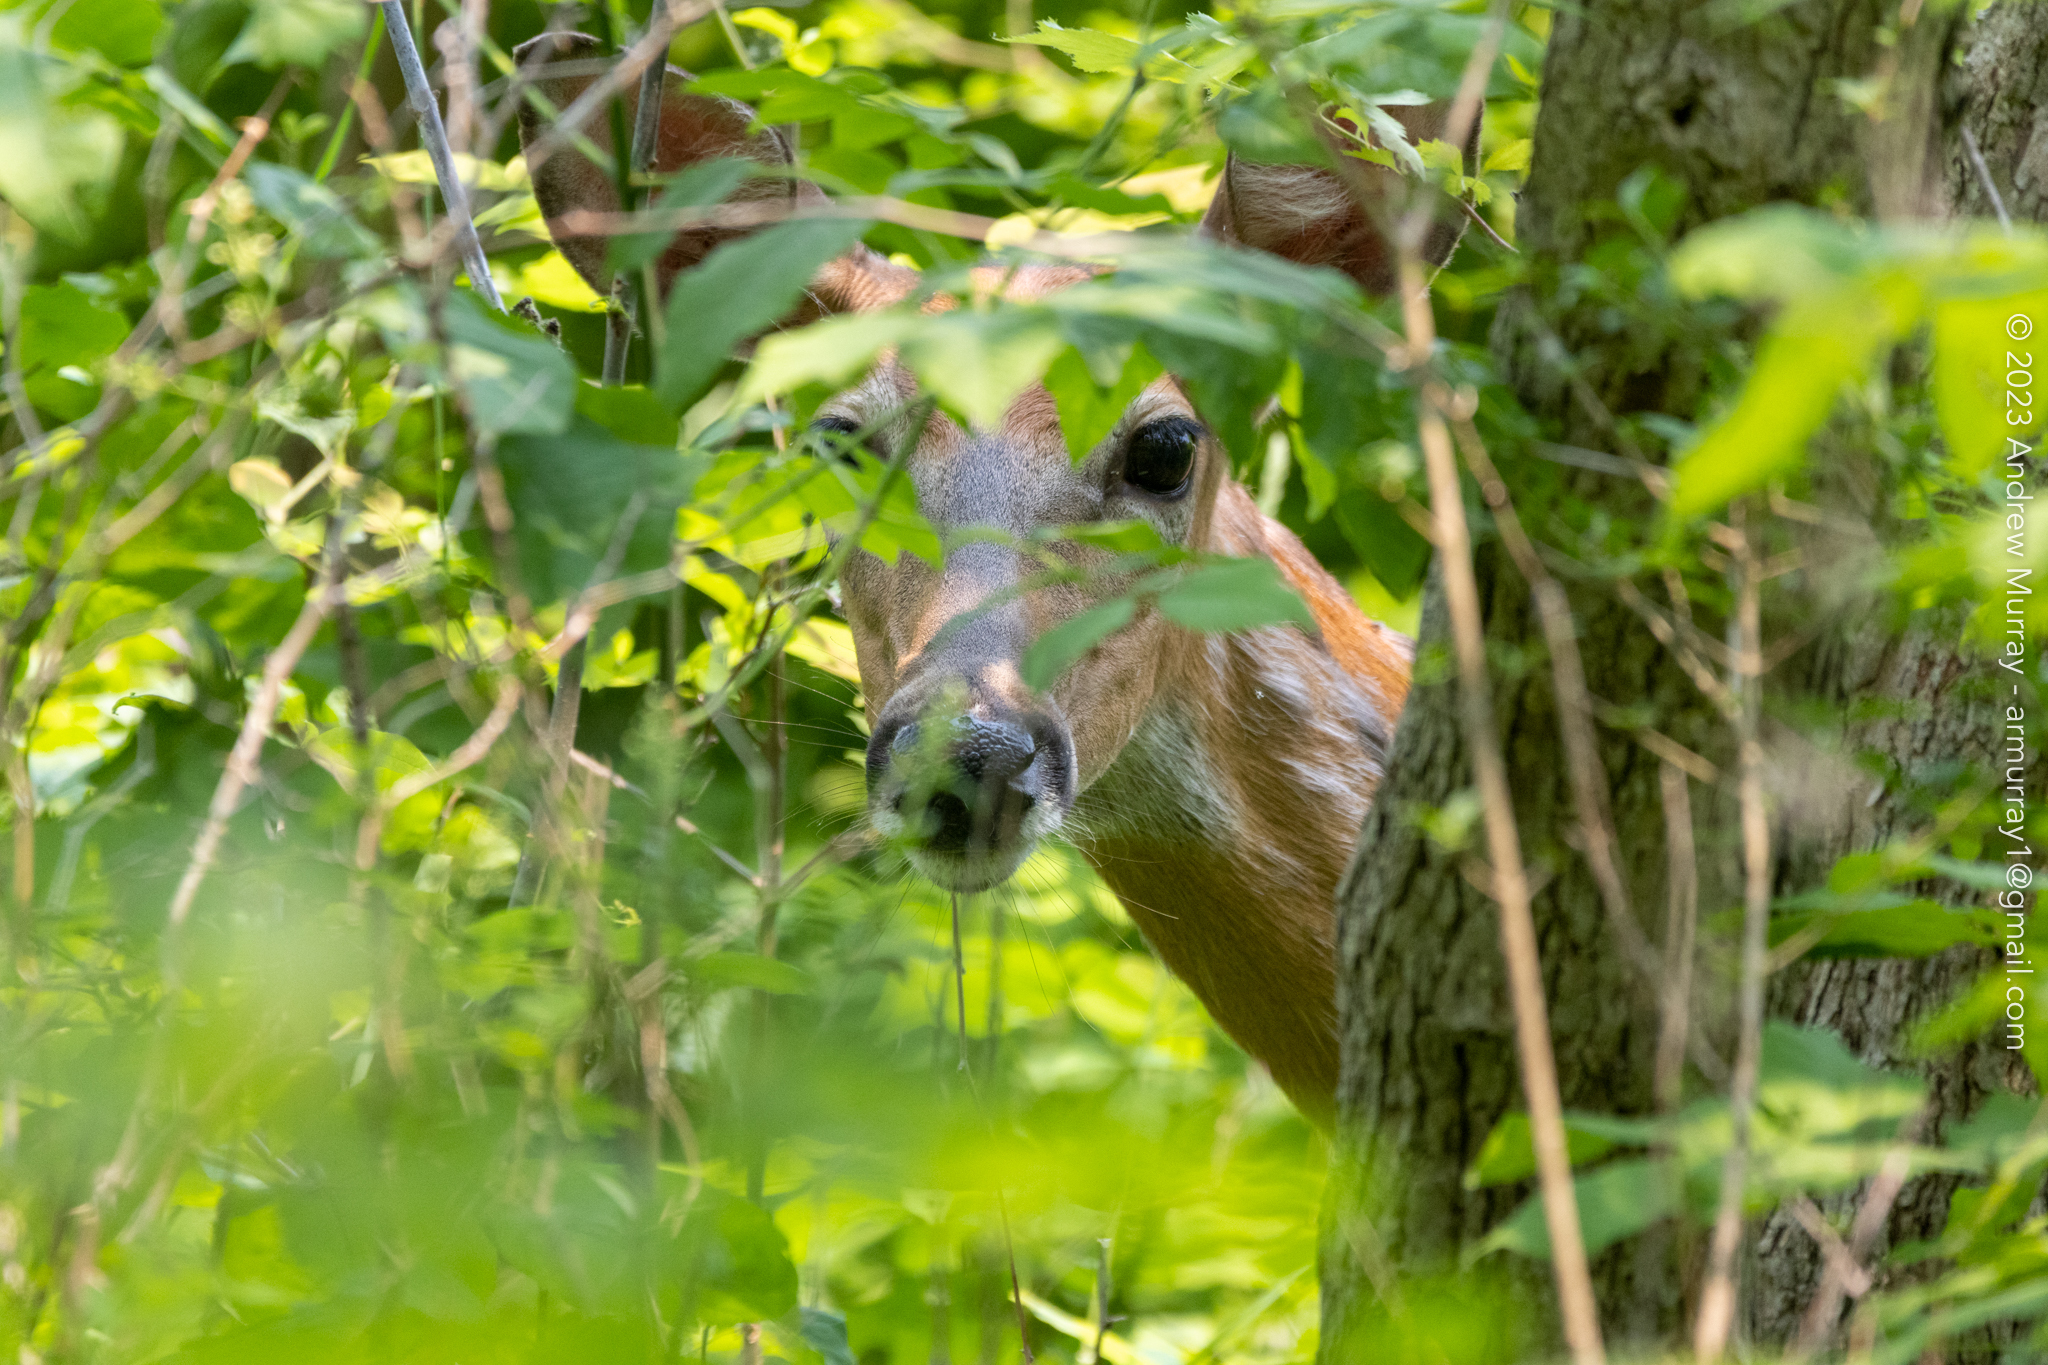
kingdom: Animalia
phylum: Chordata
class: Mammalia
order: Artiodactyla
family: Cervidae
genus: Odocoileus
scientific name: Odocoileus virginianus
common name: White-tailed deer
